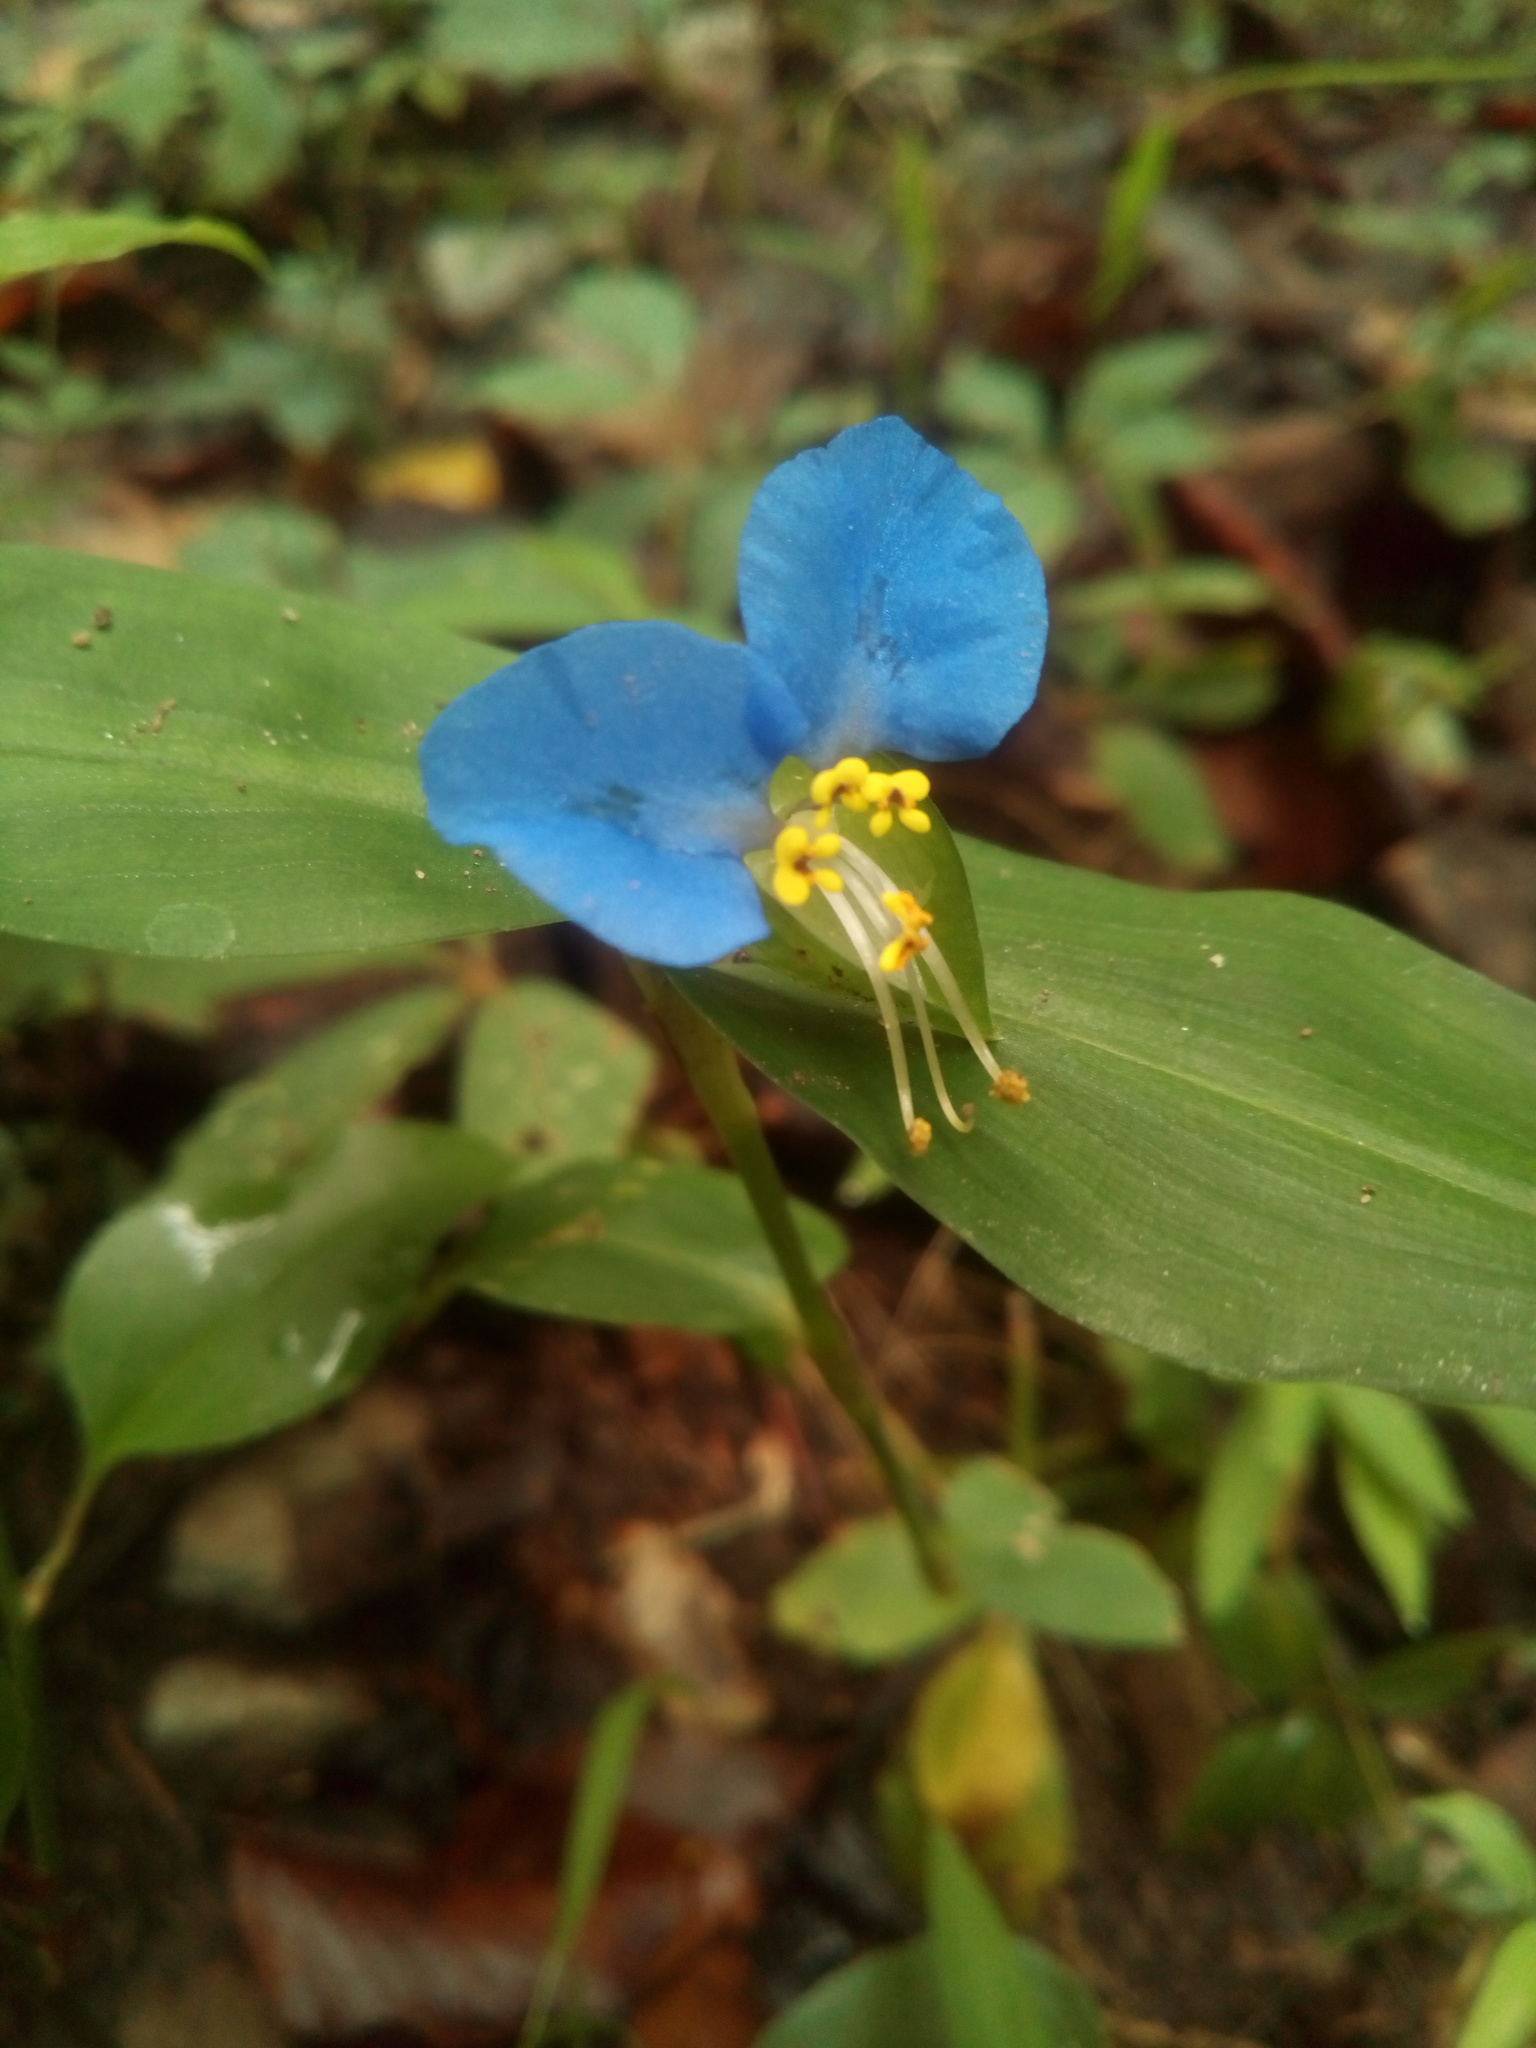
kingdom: Plantae
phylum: Tracheophyta
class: Liliopsida
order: Commelinales
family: Commelinaceae
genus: Commelina
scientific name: Commelina communis
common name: Asiatic dayflower
